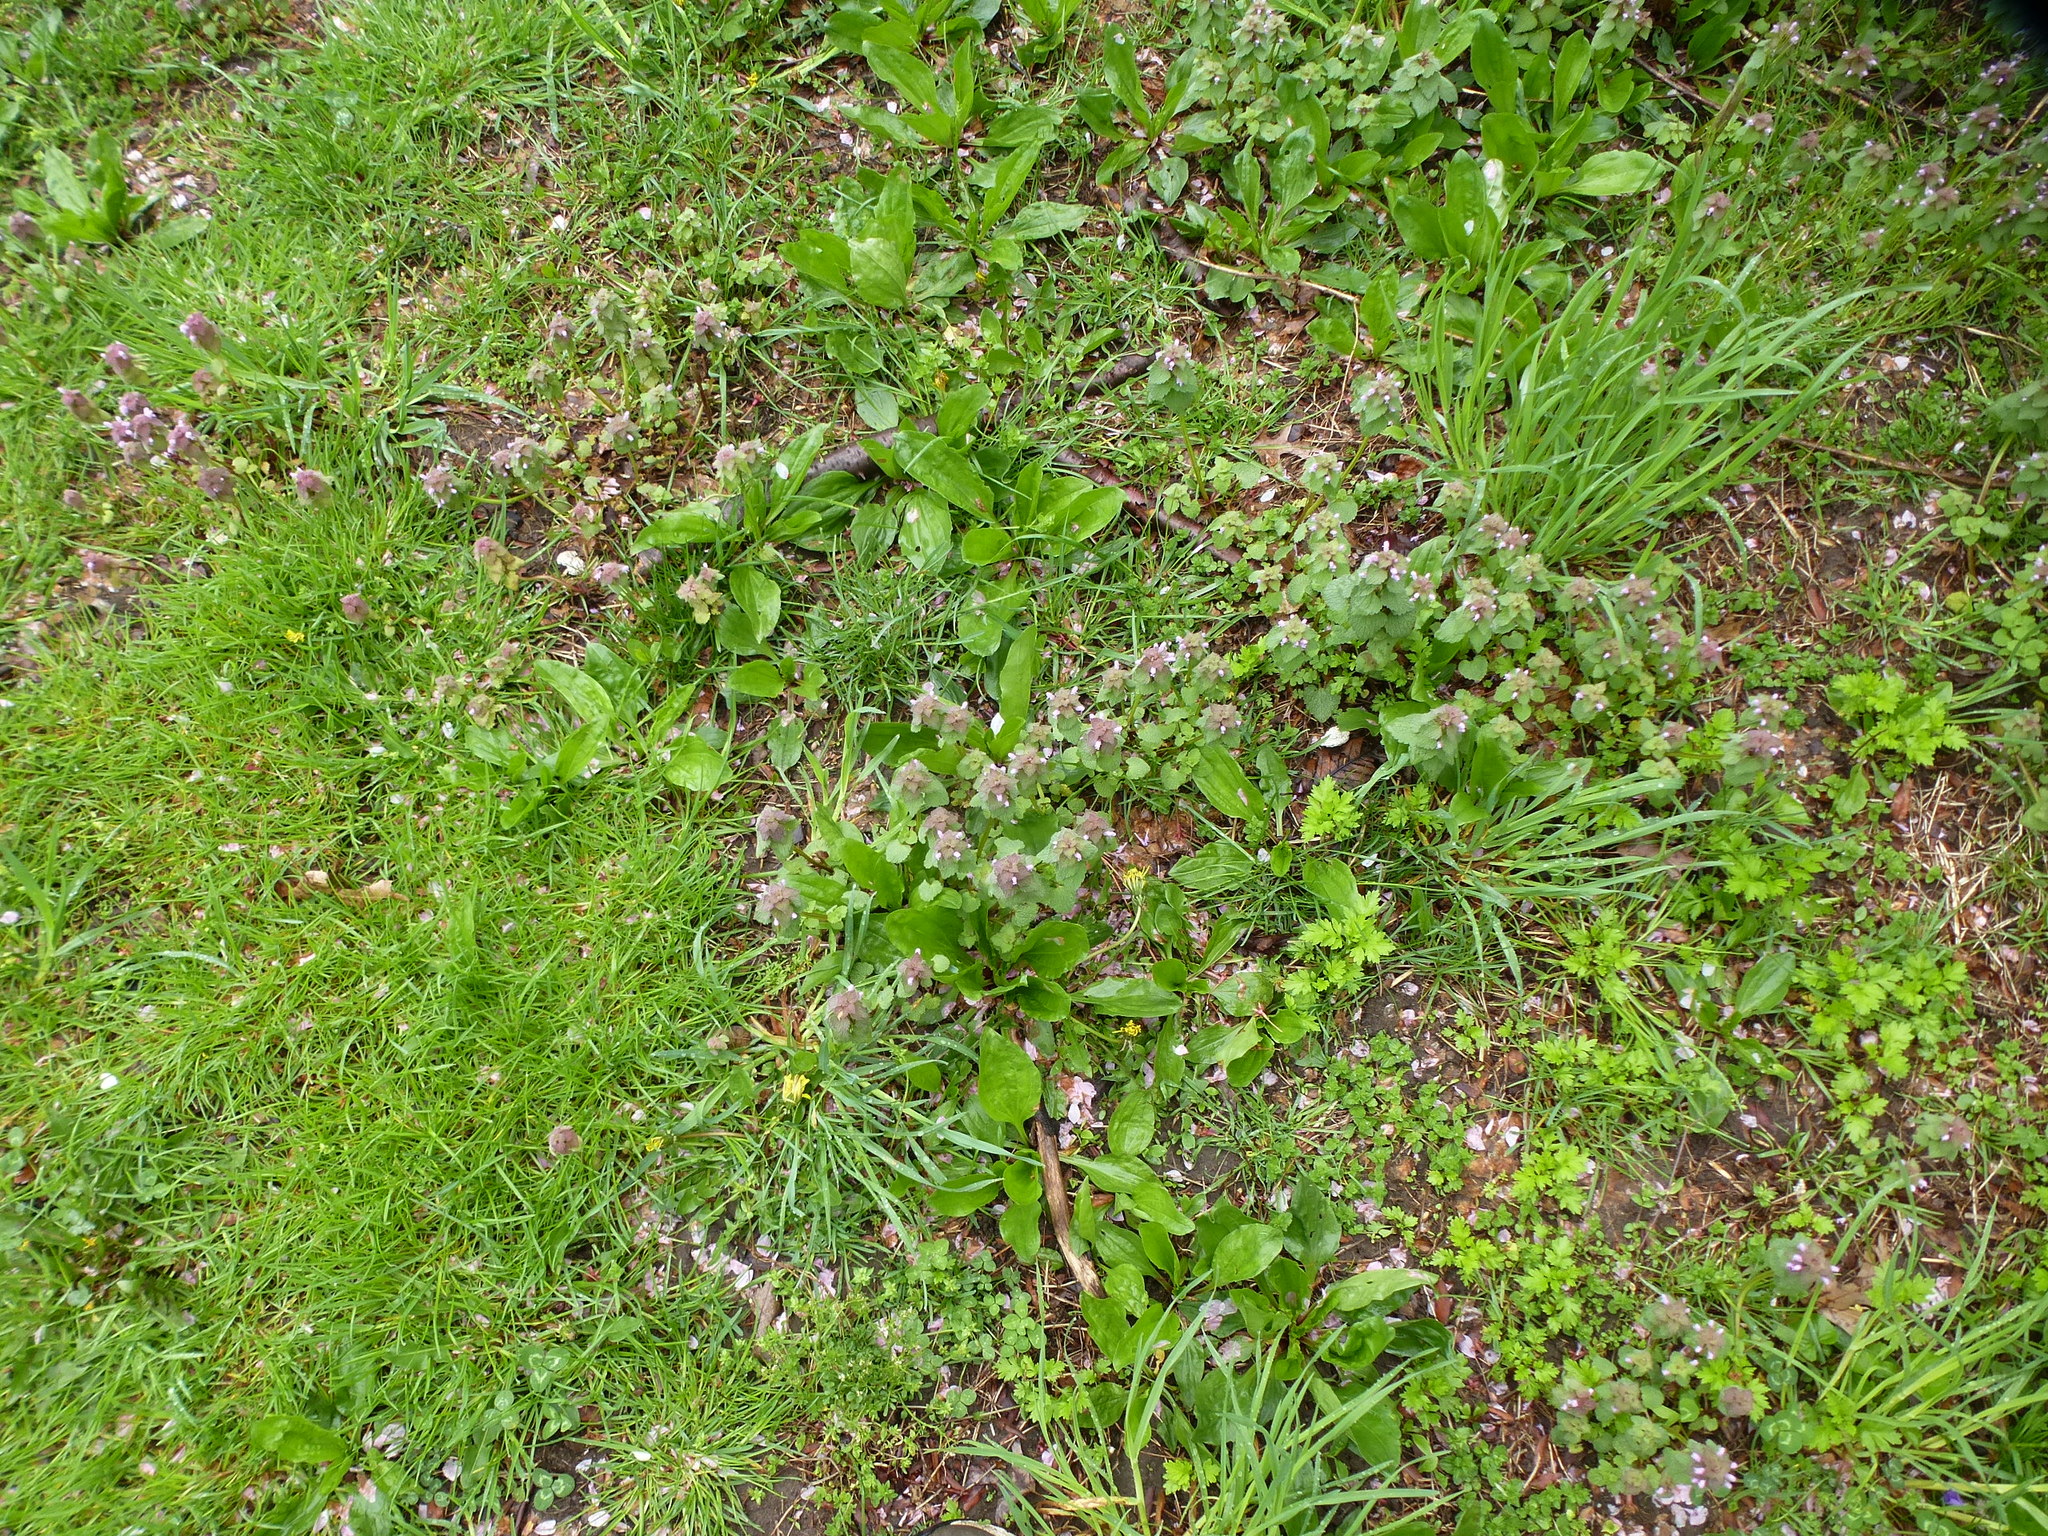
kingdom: Plantae
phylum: Tracheophyta
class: Magnoliopsida
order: Lamiales
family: Lamiaceae
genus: Lamium
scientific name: Lamium purpureum
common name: Red dead-nettle
